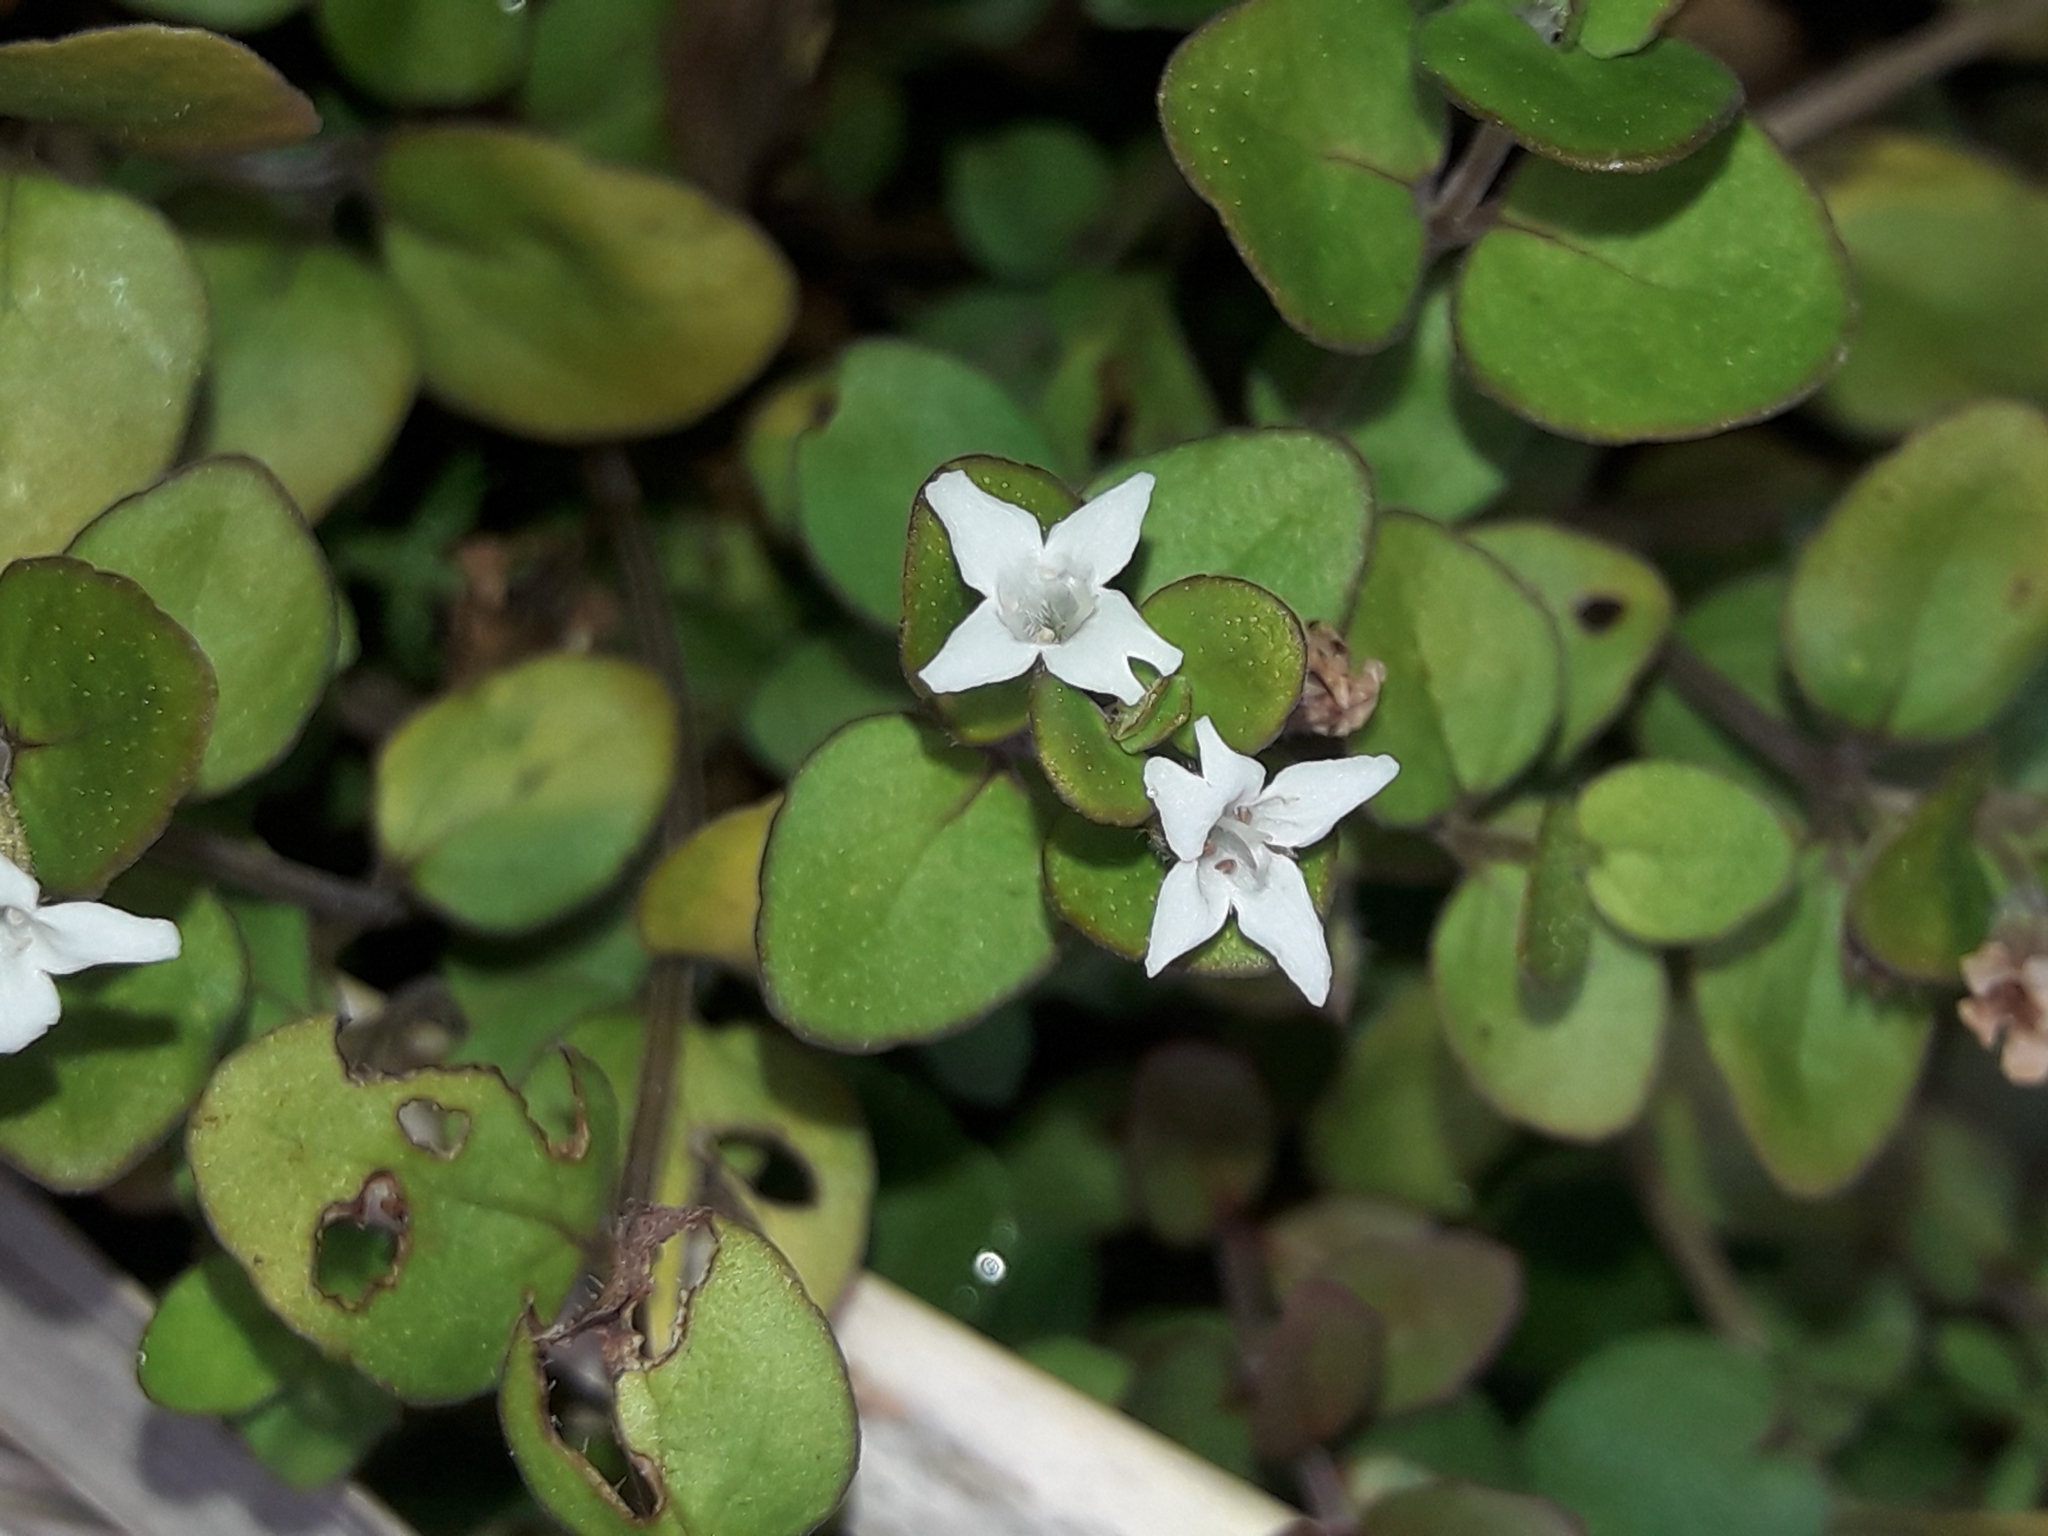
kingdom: Plantae
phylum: Tracheophyta
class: Magnoliopsida
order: Lamiales
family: Lamiaceae
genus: Mentha
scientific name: Mentha cunninghamii
